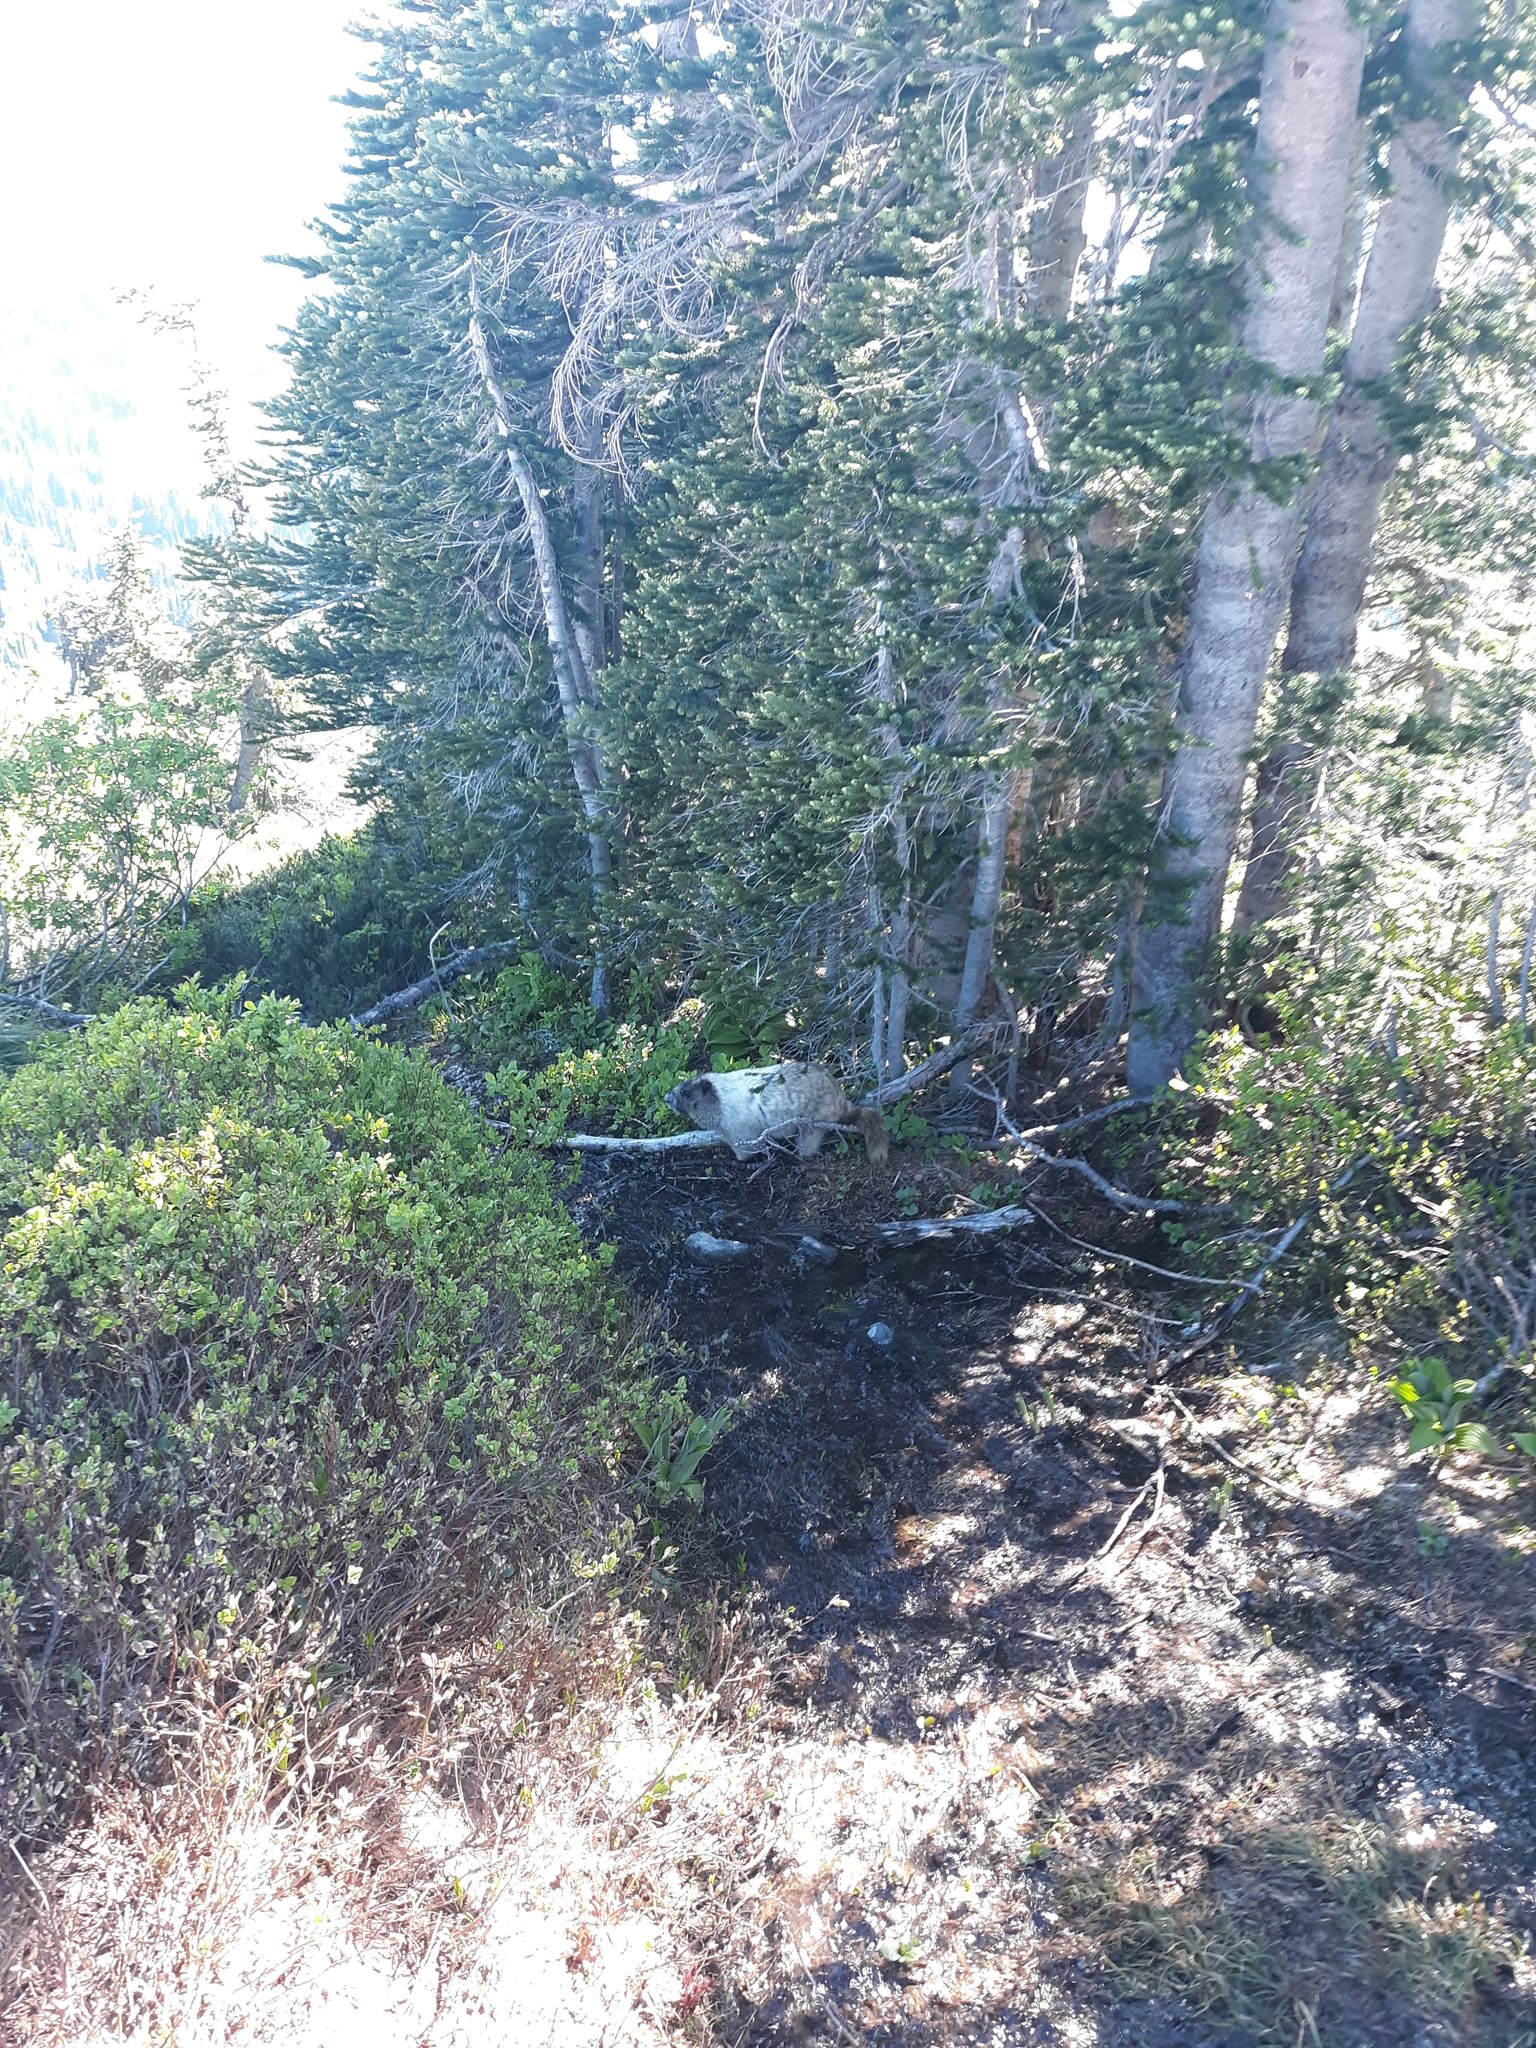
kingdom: Animalia
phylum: Chordata
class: Mammalia
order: Rodentia
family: Sciuridae
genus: Marmota
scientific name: Marmota caligata
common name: Hoary marmot
